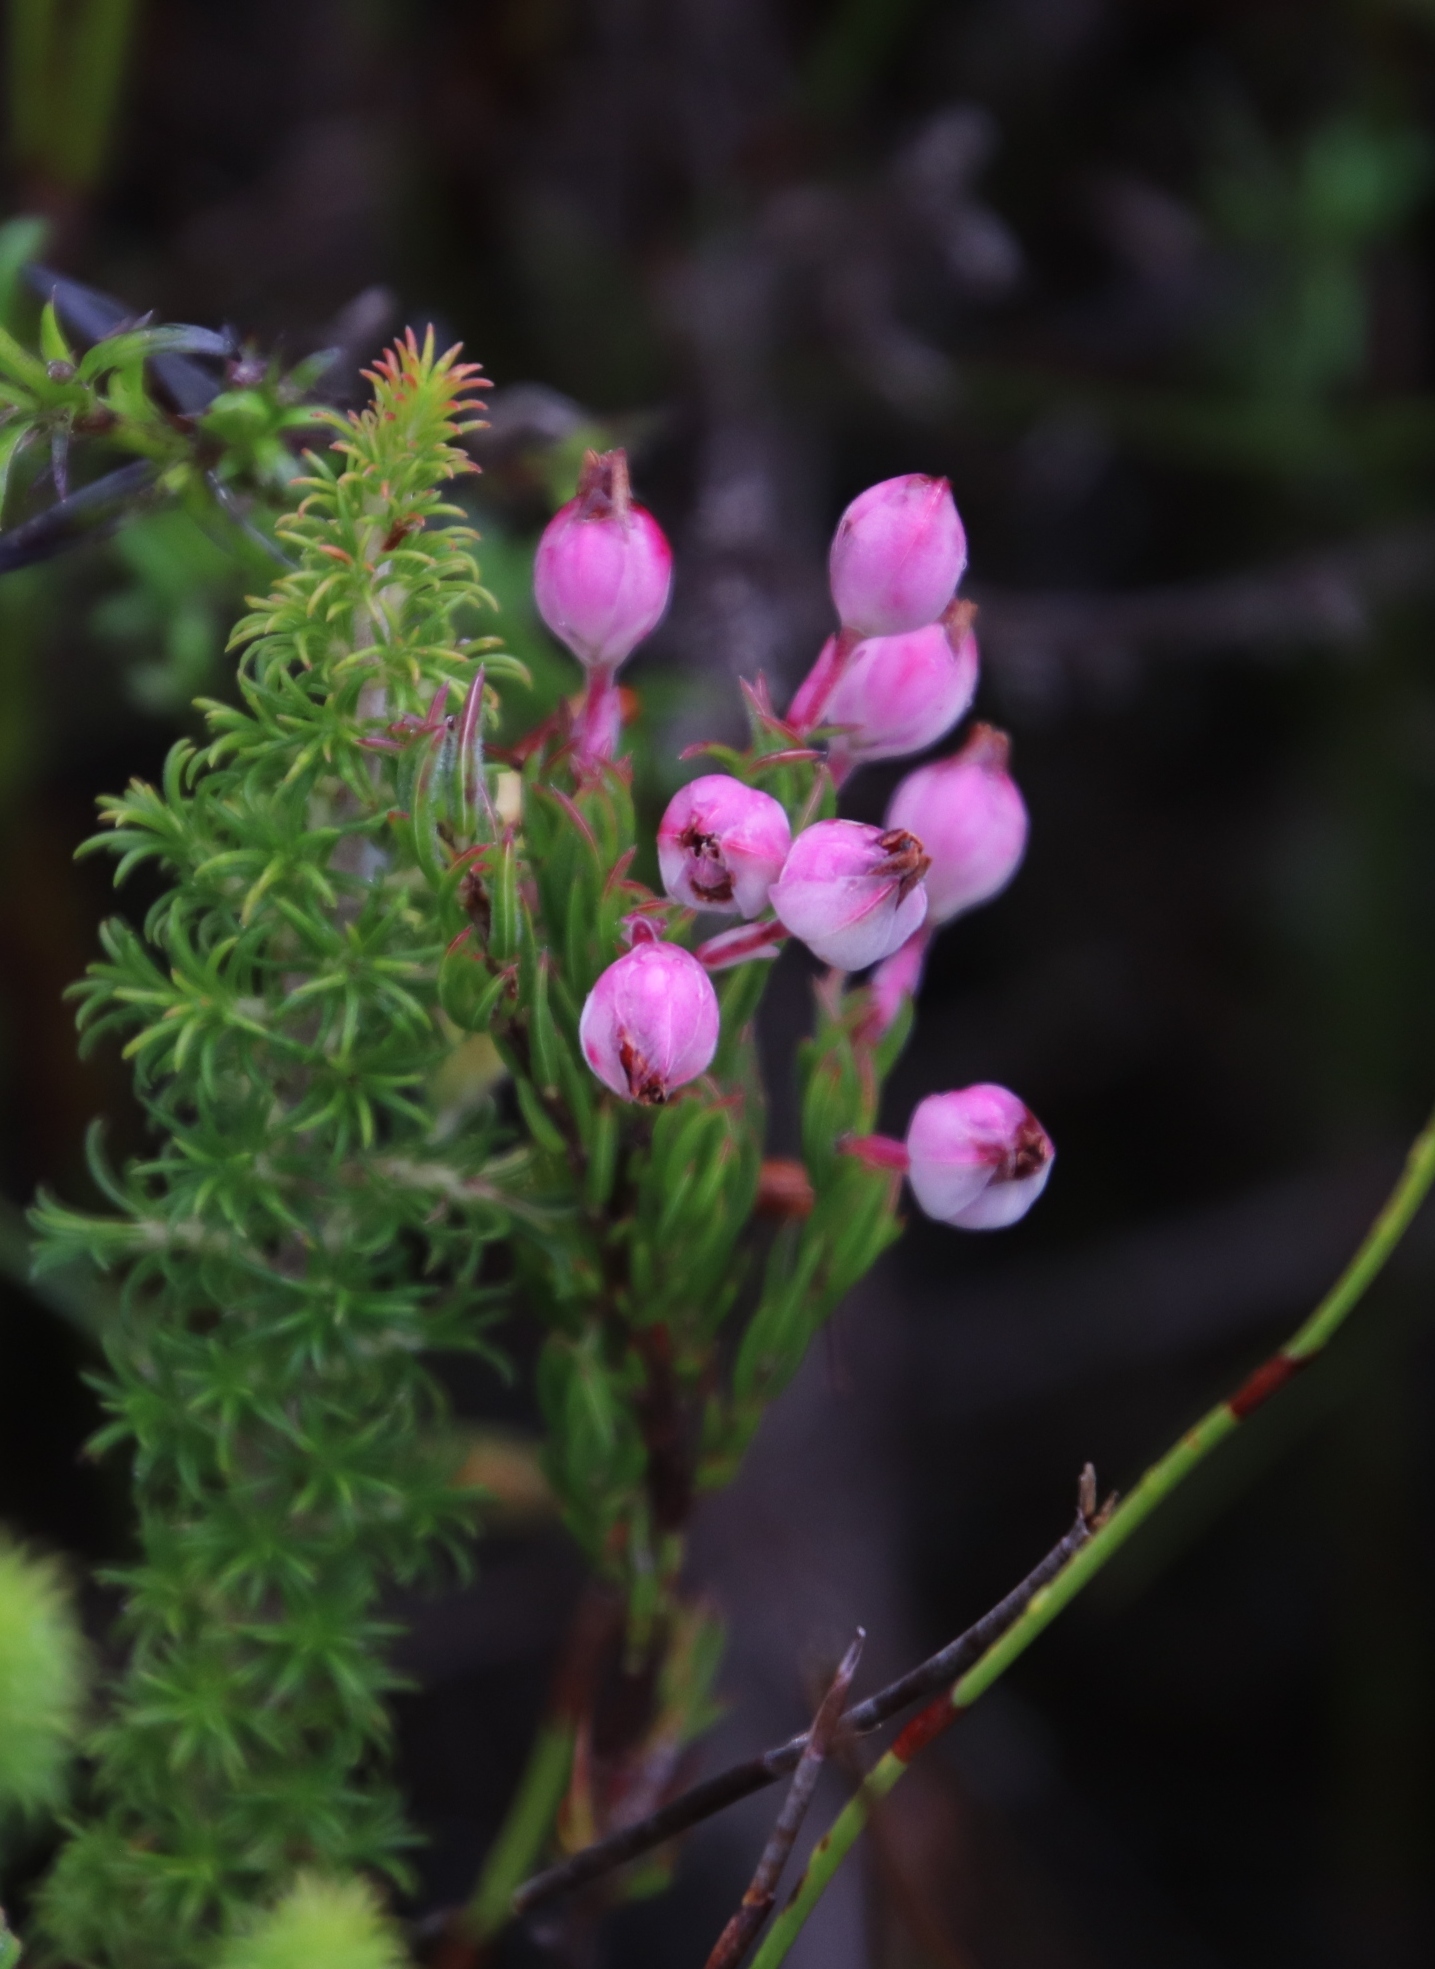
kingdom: Plantae
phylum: Tracheophyta
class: Magnoliopsida
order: Ericales
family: Ericaceae
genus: Erica
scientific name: Erica holosericea
